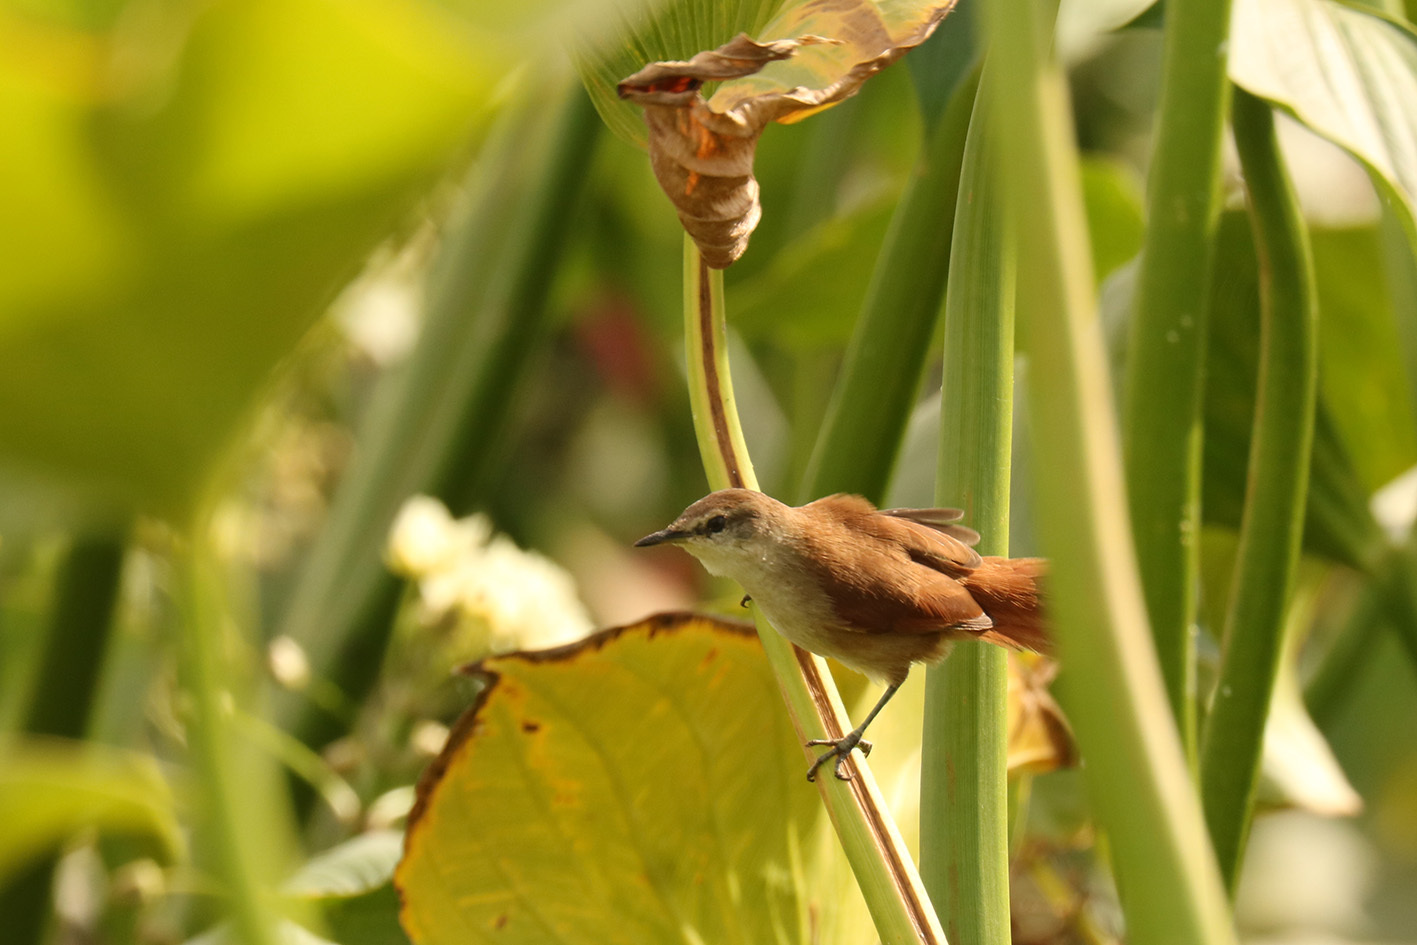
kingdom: Animalia
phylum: Chordata
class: Aves
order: Passeriformes
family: Furnariidae
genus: Certhiaxis
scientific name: Certhiaxis cinnamomeus
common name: Yellow-chinned spinetail
